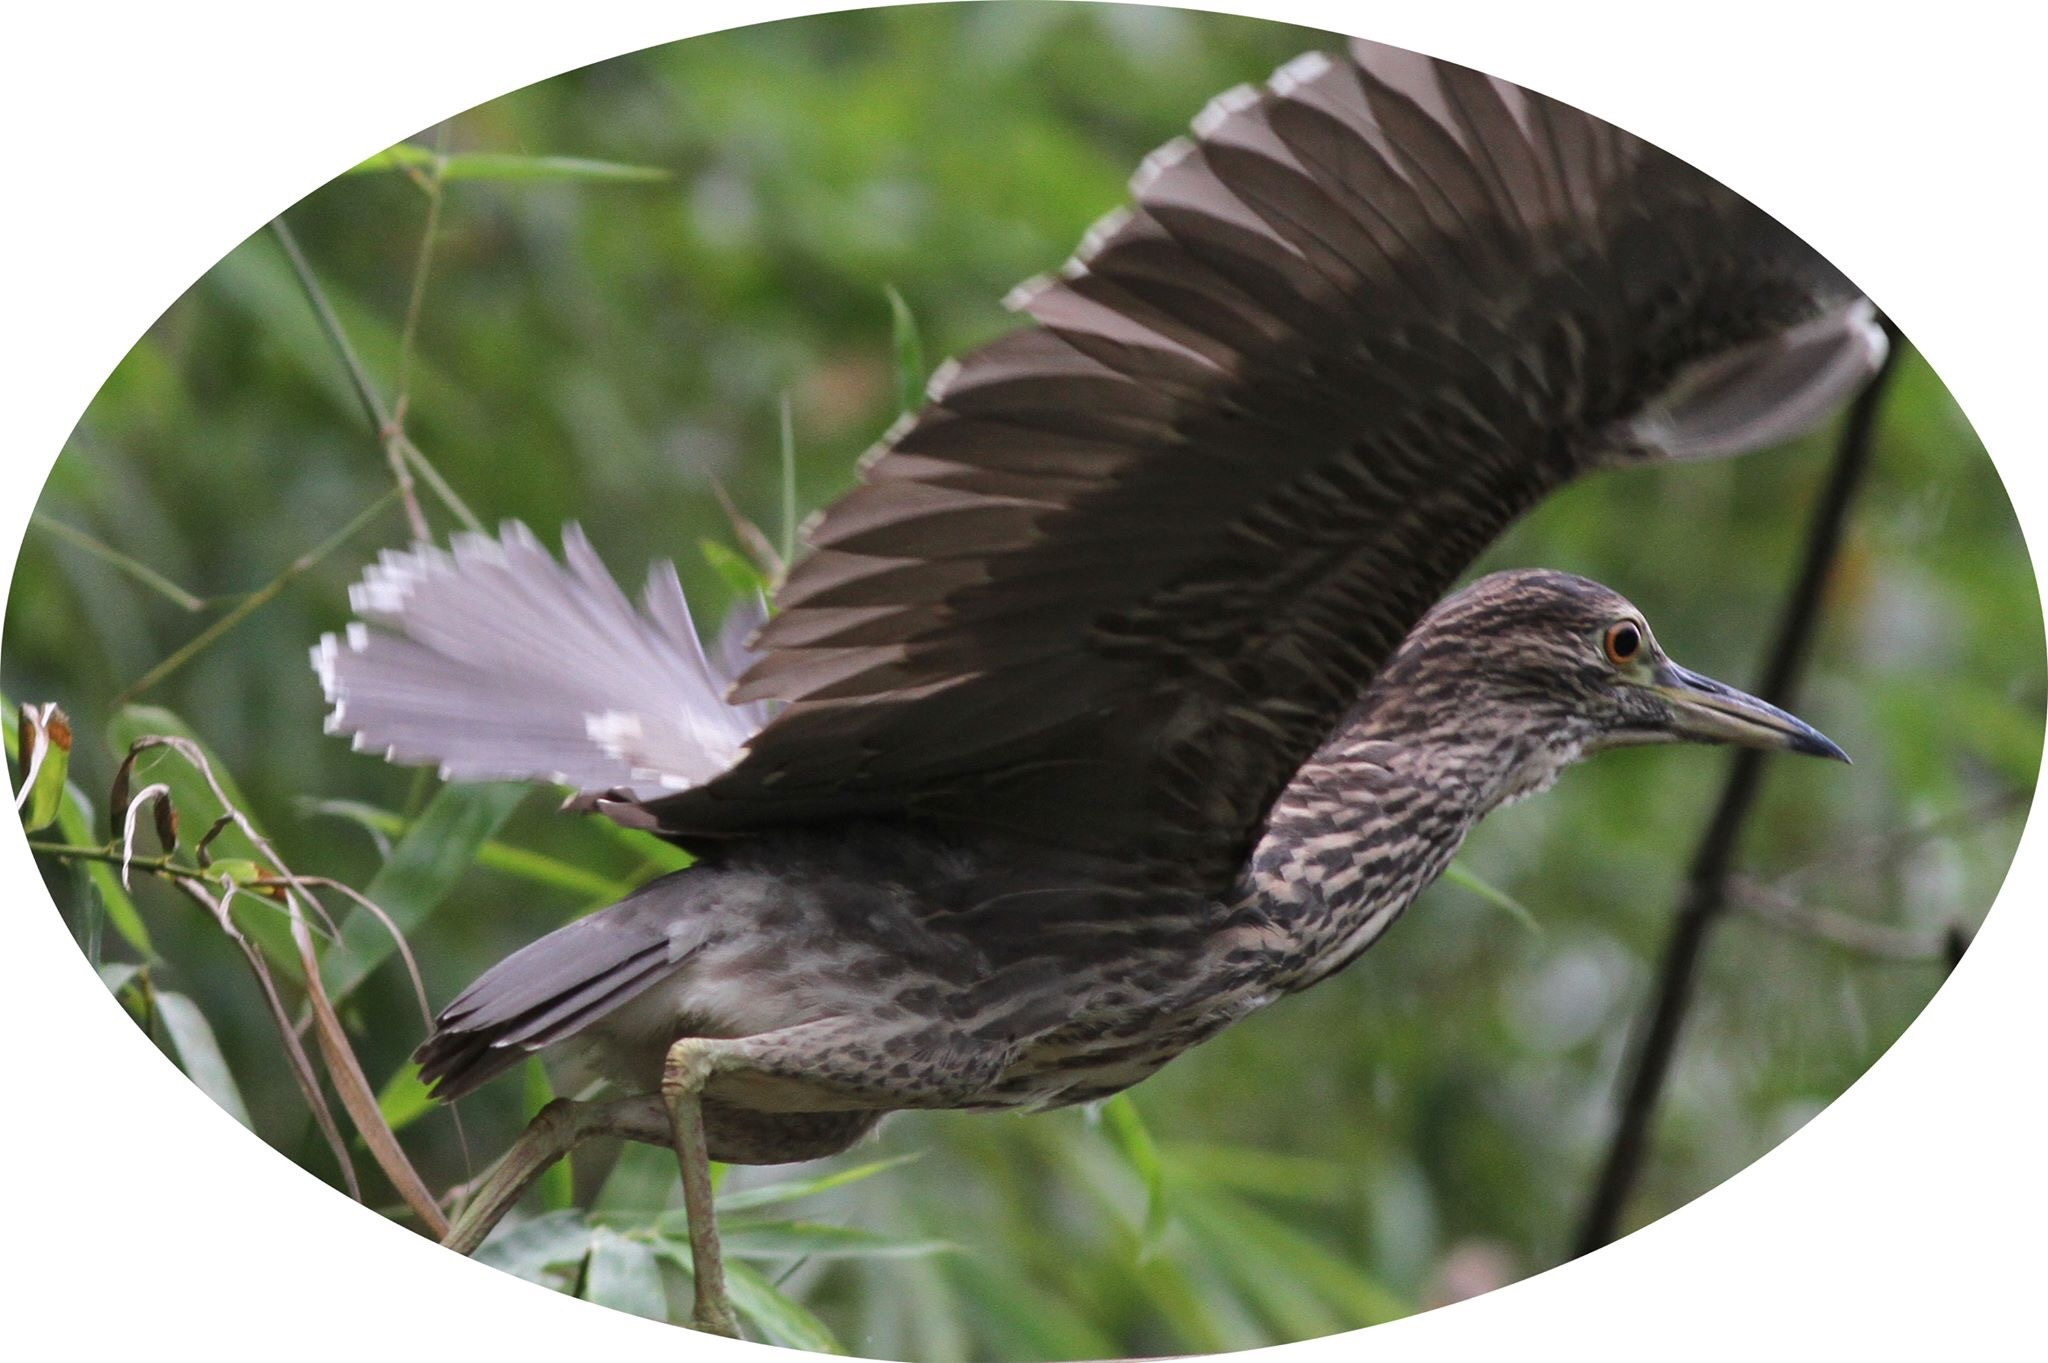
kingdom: Animalia
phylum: Chordata
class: Aves
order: Pelecaniformes
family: Ardeidae
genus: Nycticorax
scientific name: Nycticorax nycticorax
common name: Black-crowned night heron
